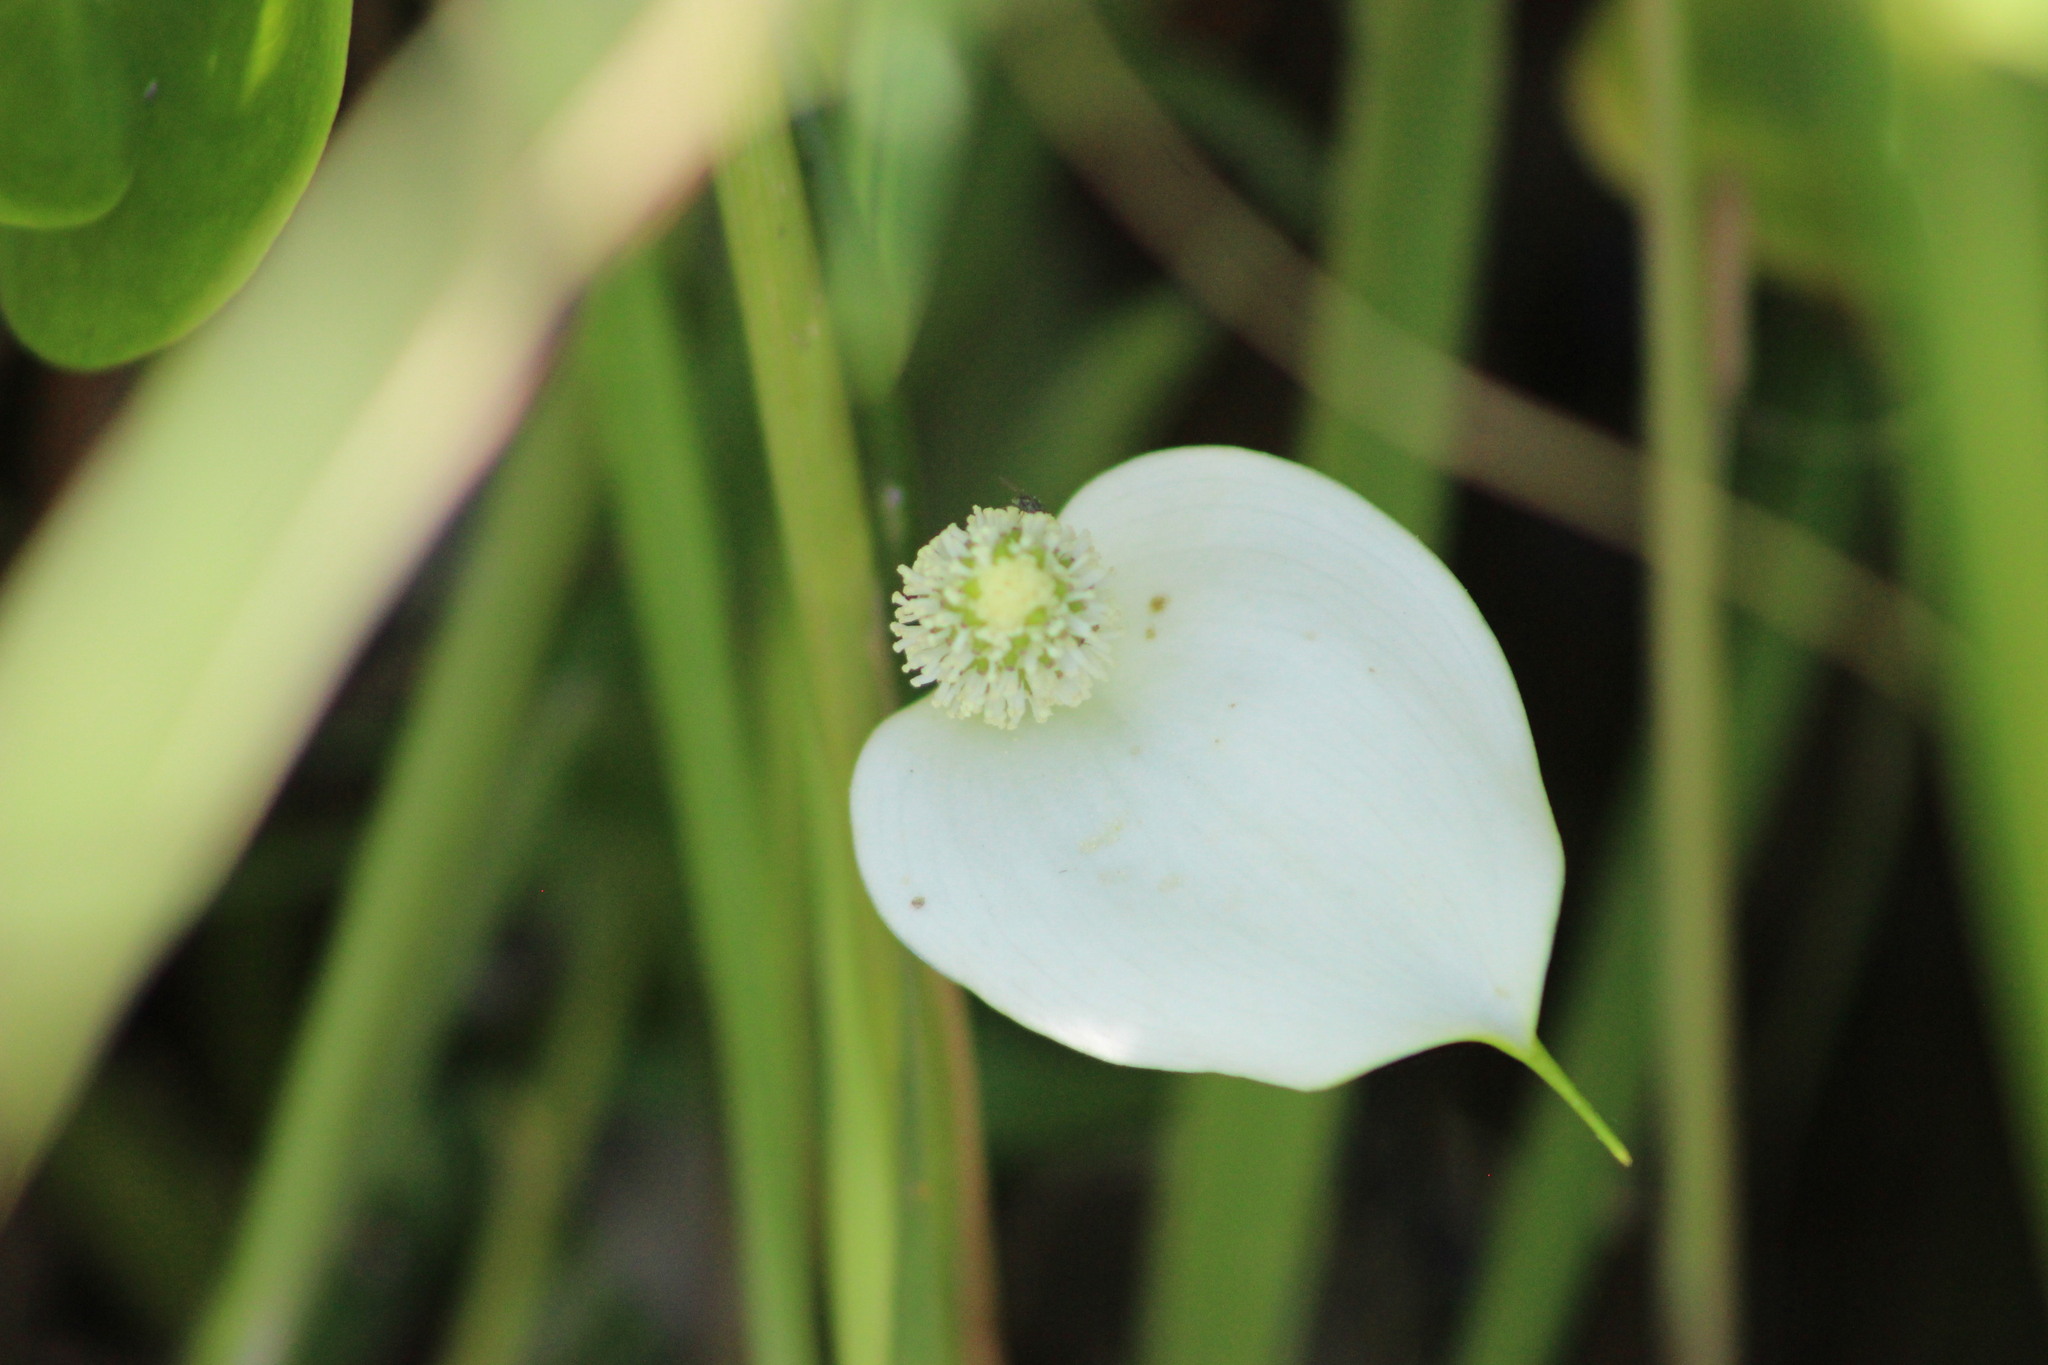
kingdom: Plantae
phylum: Tracheophyta
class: Liliopsida
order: Alismatales
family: Araceae
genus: Calla
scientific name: Calla palustris
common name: Bog arum
